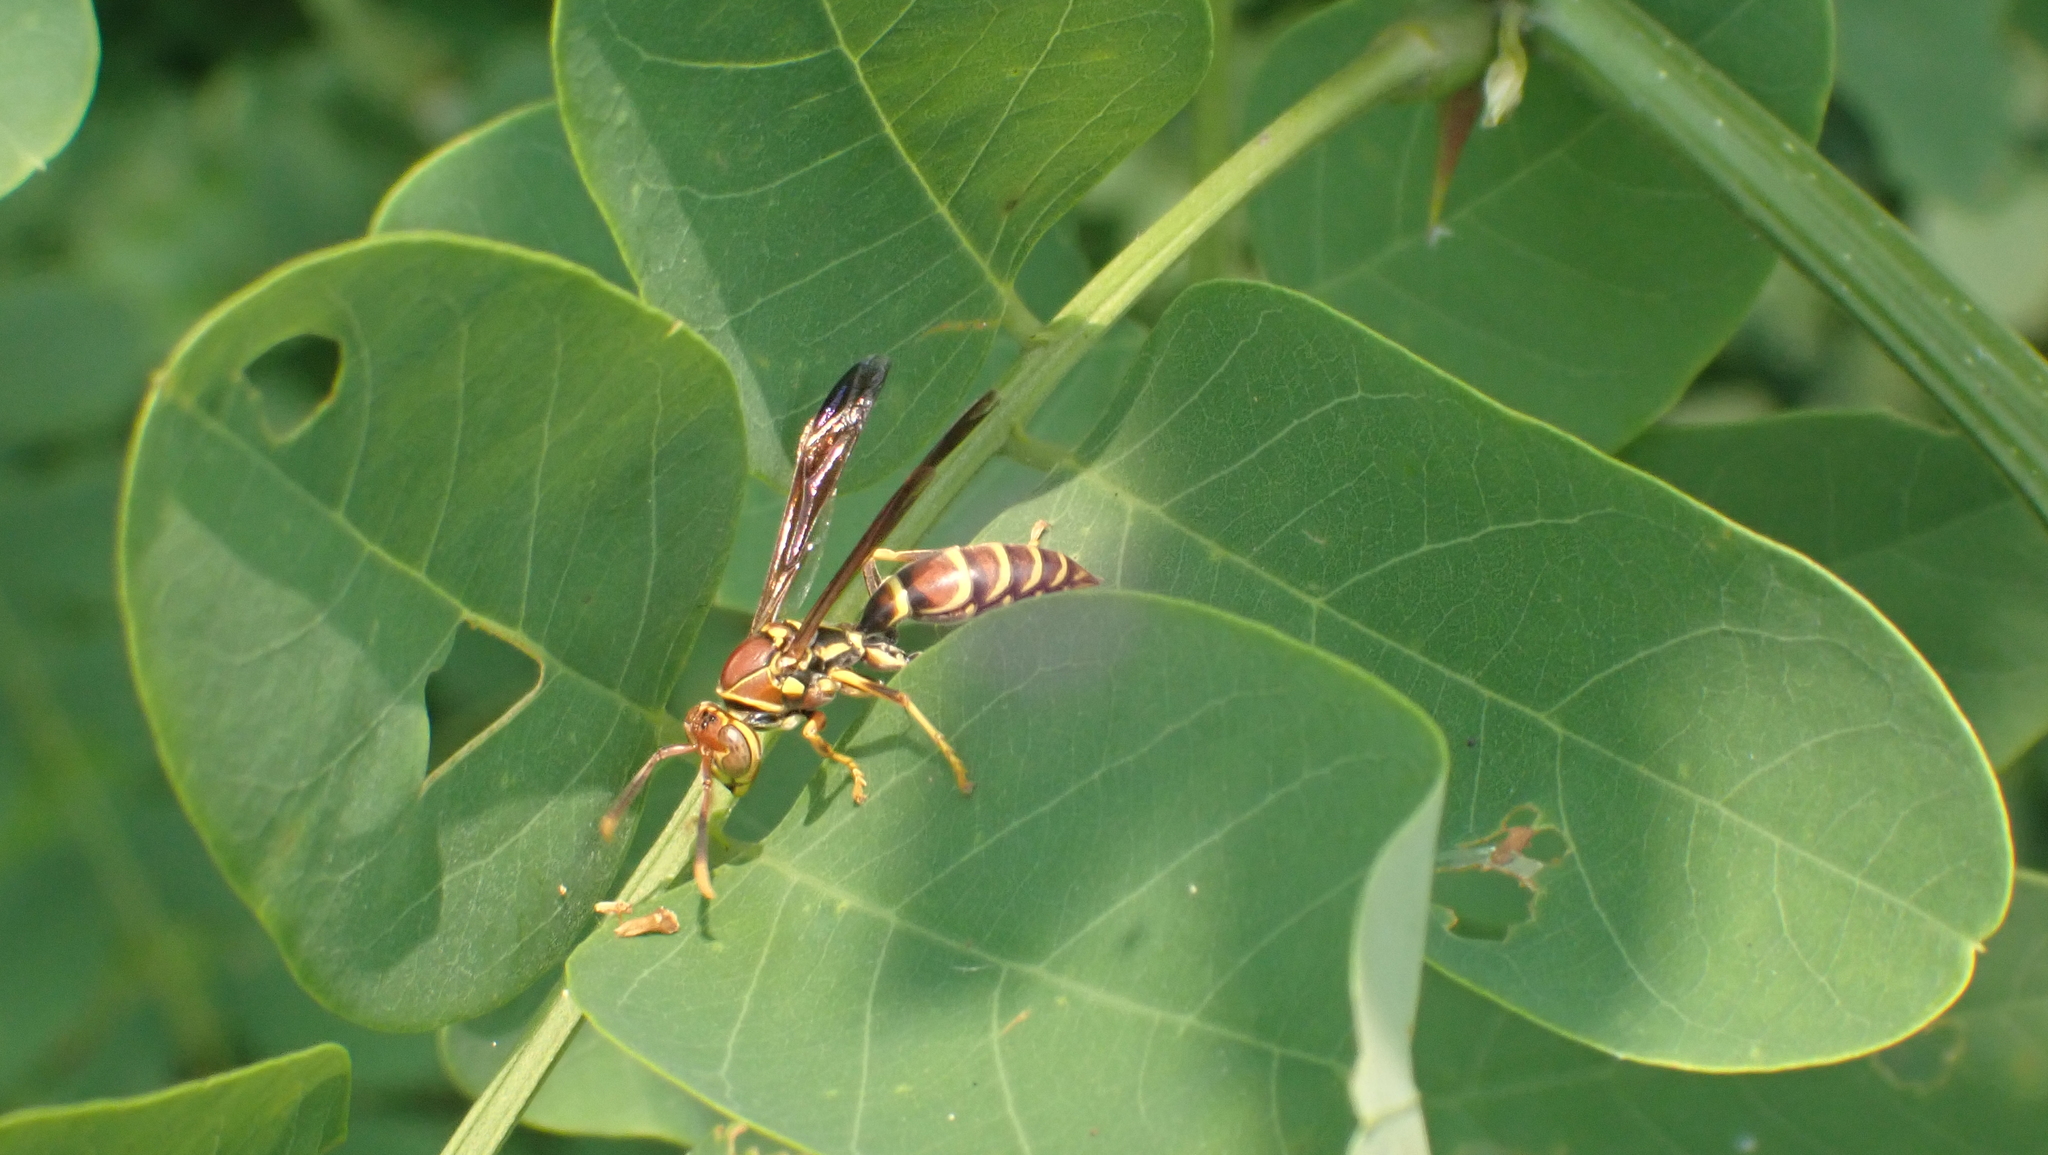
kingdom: Animalia
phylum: Arthropoda
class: Insecta
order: Hymenoptera
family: Eumenidae
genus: Polistes
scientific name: Polistes exclamans
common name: Paper wasp
